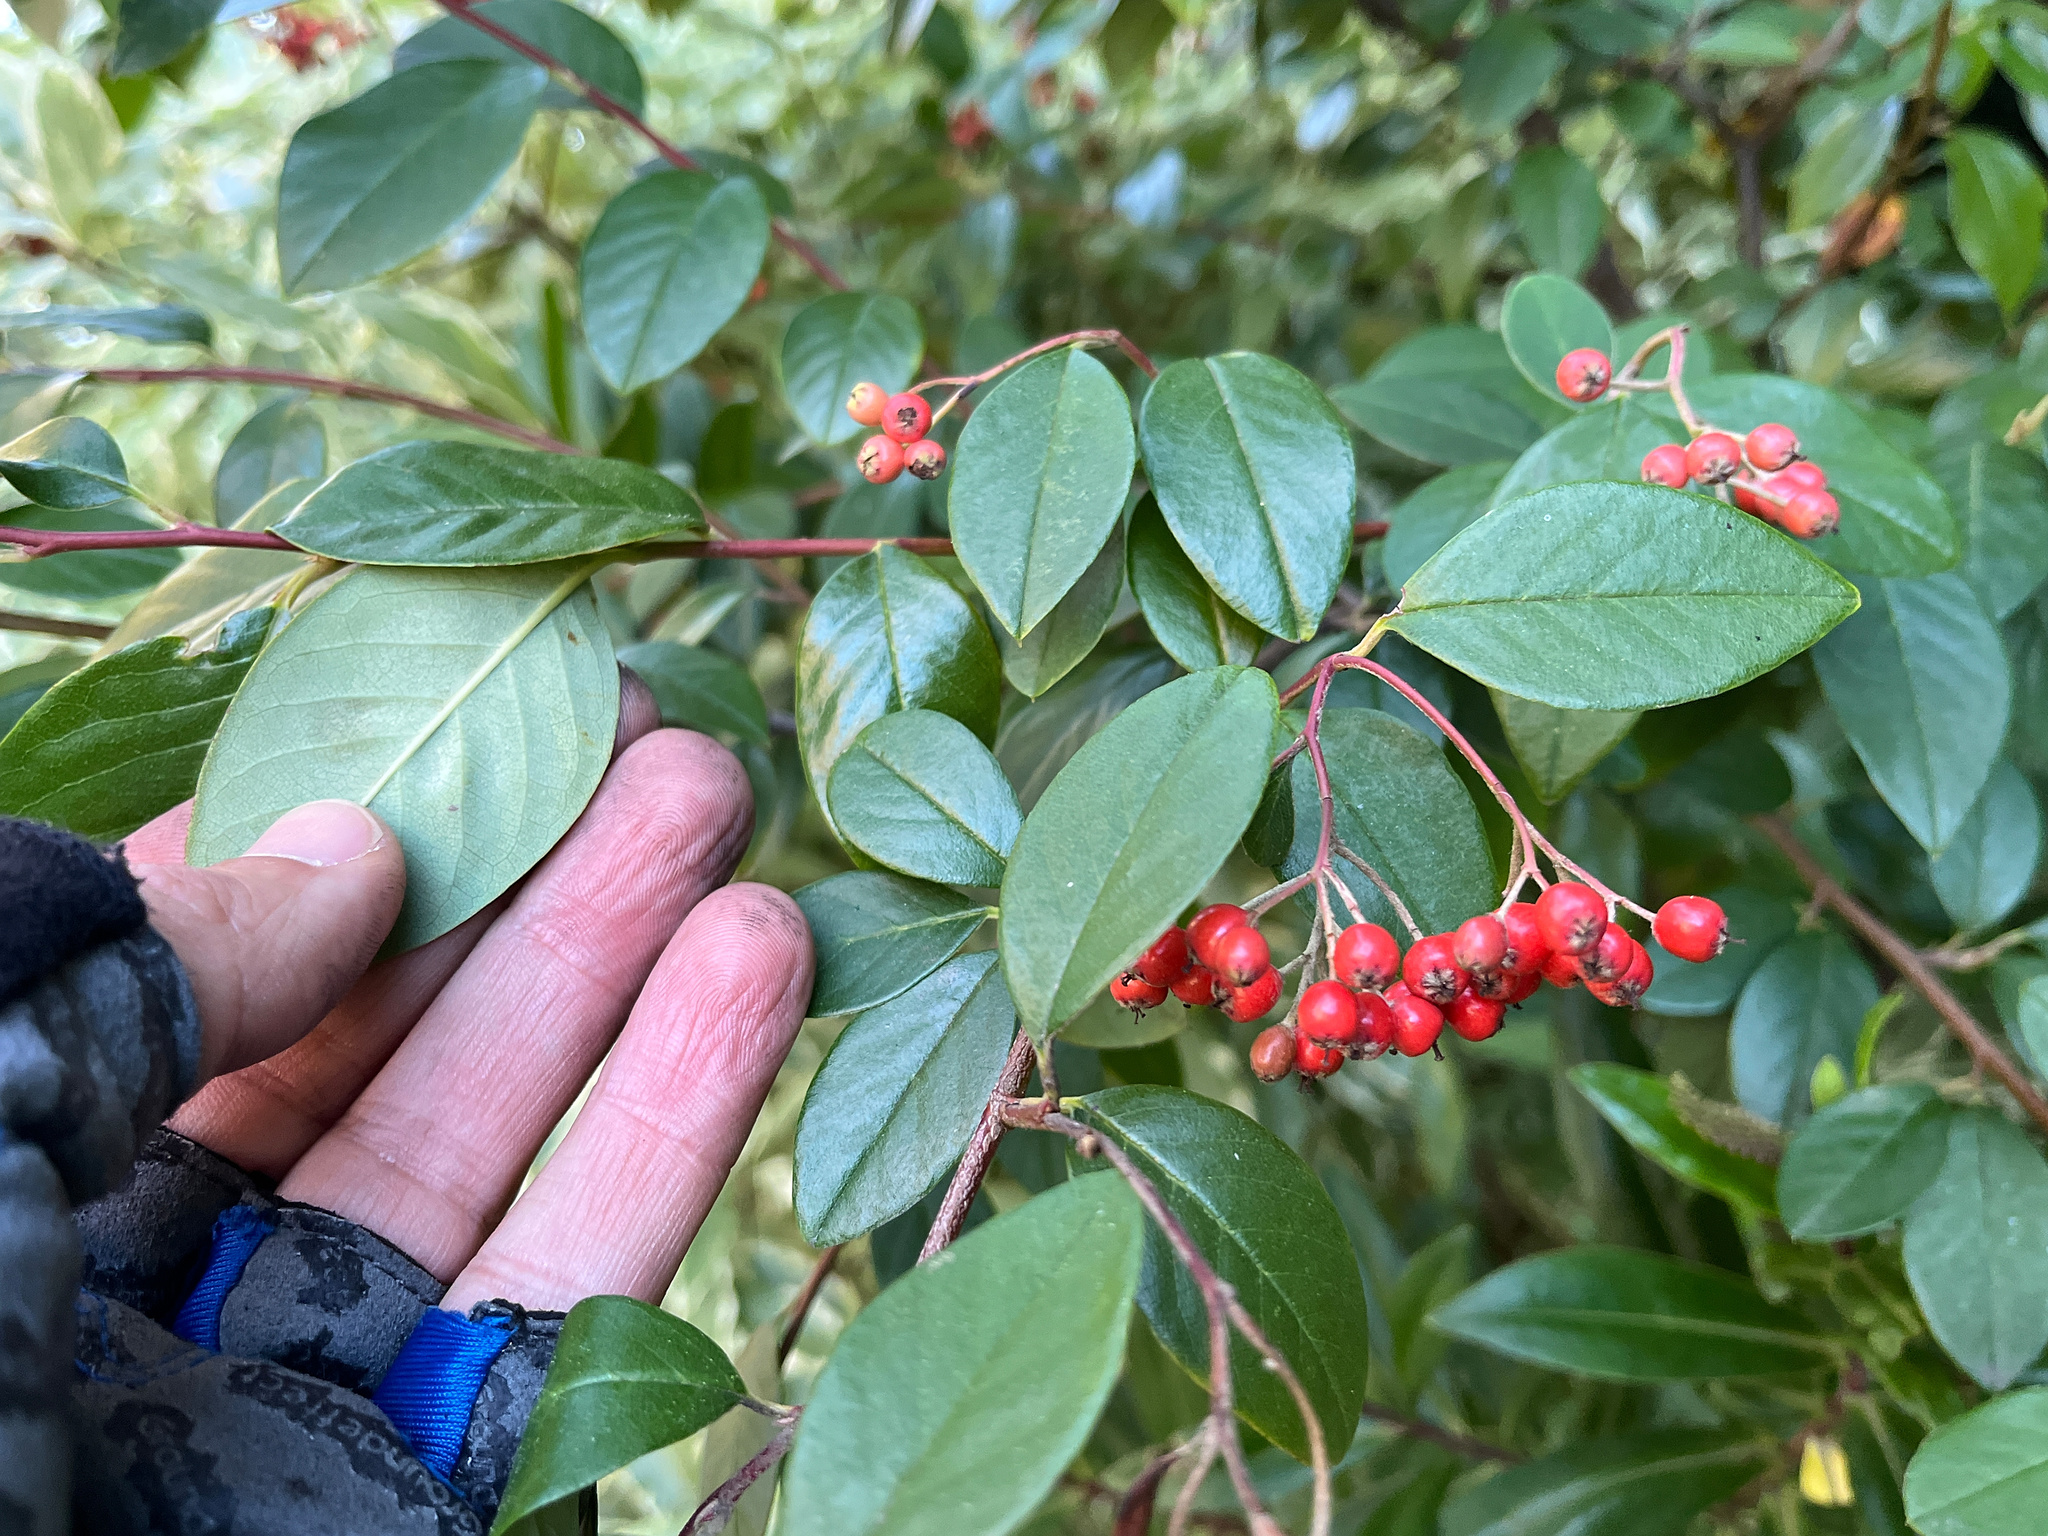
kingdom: Plantae
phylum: Tracheophyta
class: Magnoliopsida
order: Rosales
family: Rosaceae
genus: Cotoneaster
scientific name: Cotoneaster glaucophyllus
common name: Glaucous cotoneaster
